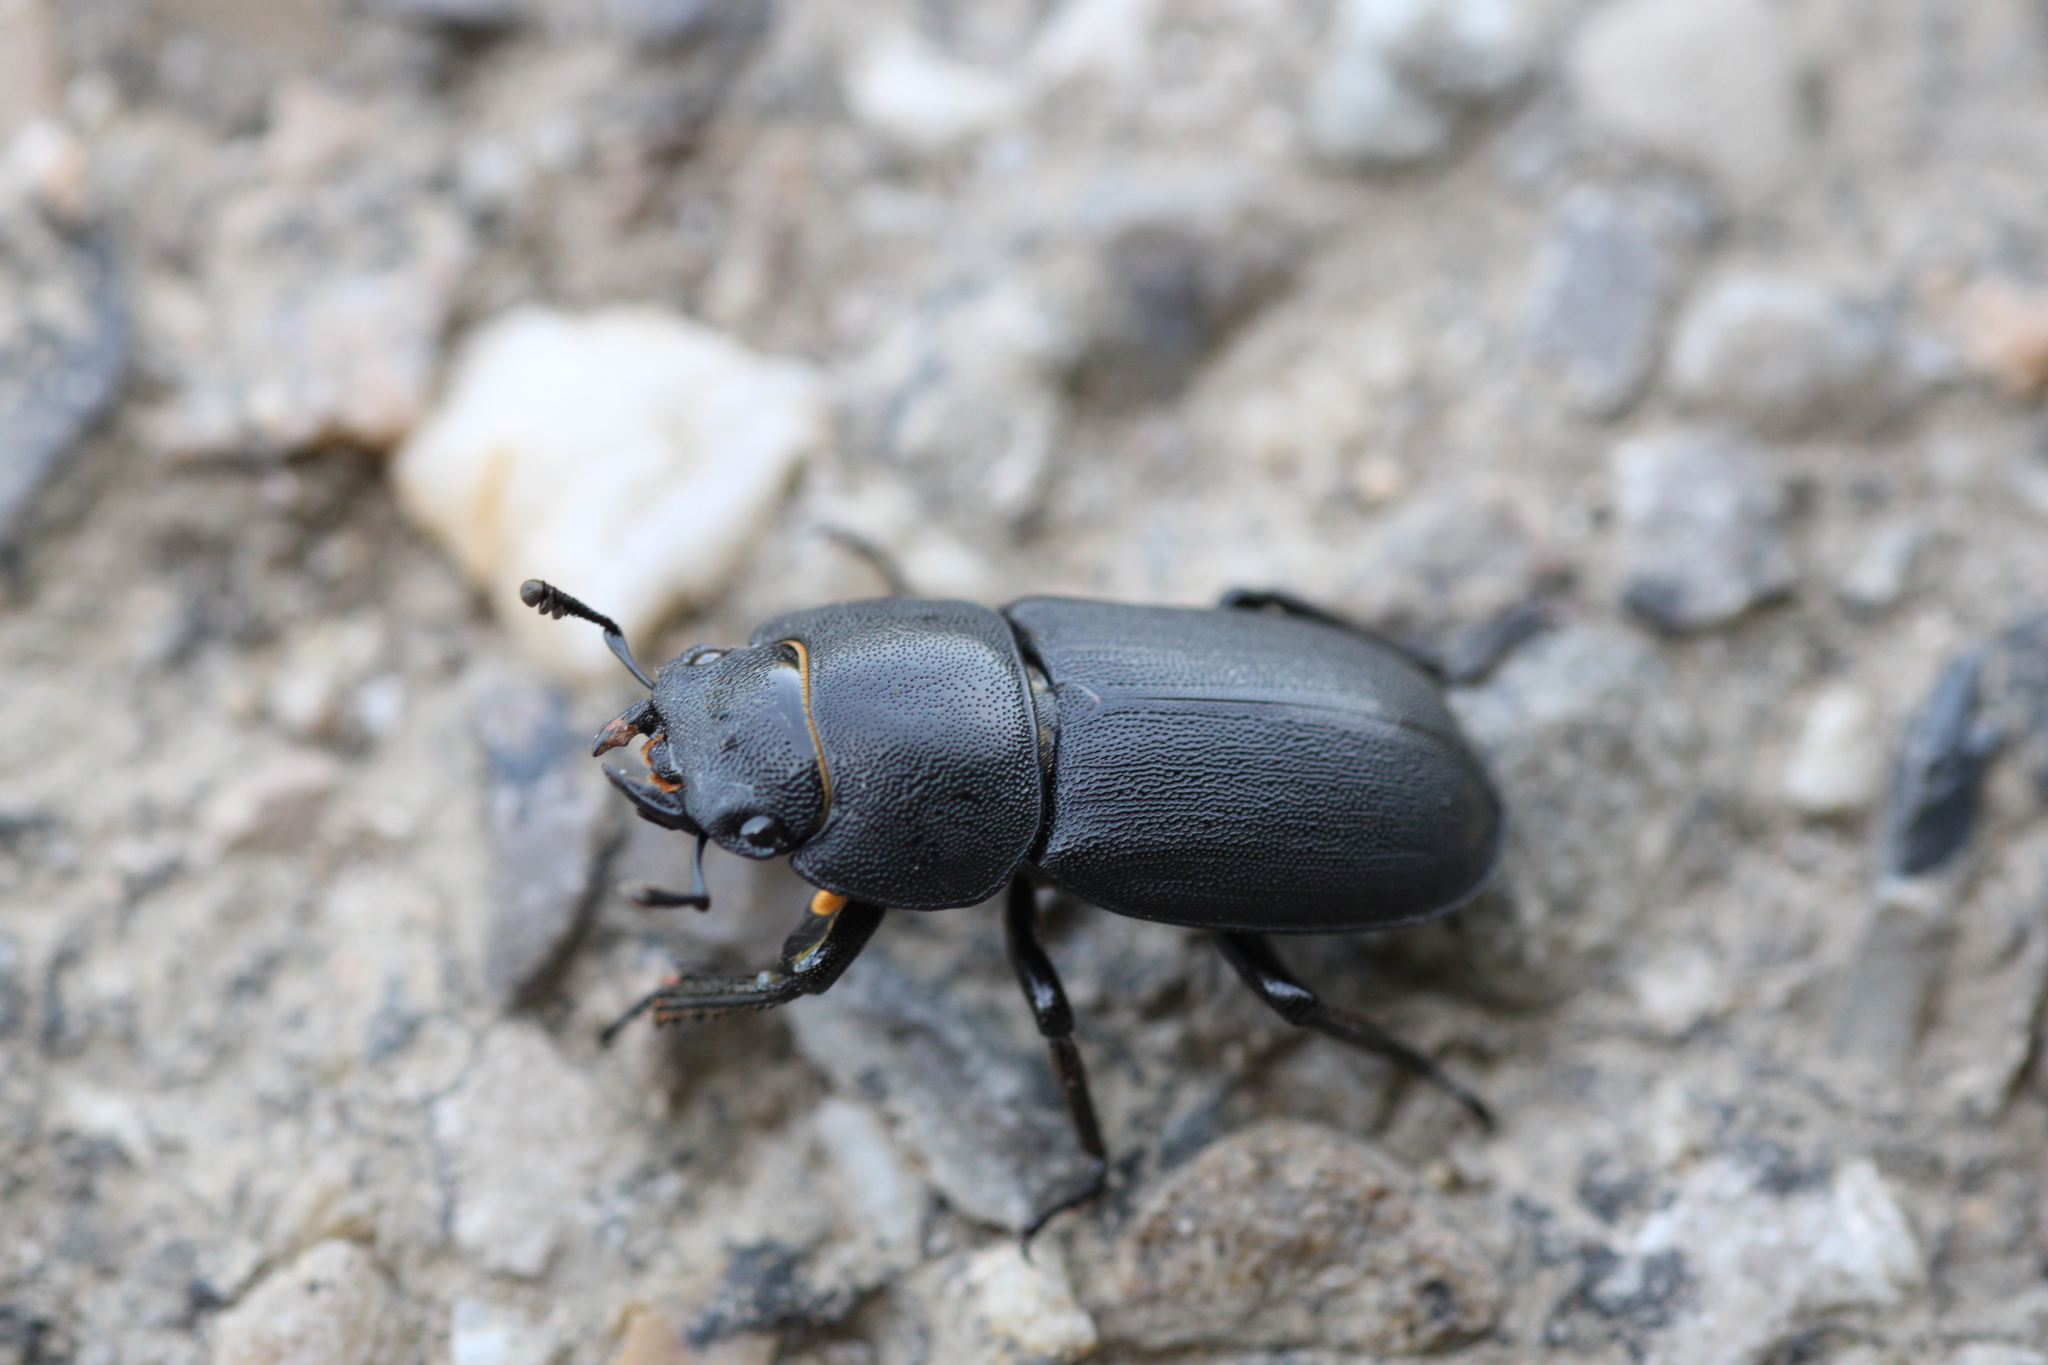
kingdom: Animalia
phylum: Arthropoda
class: Insecta
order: Coleoptera
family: Lucanidae
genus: Dorcus
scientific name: Dorcus parallelipipedus
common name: Lesser stag beetle
